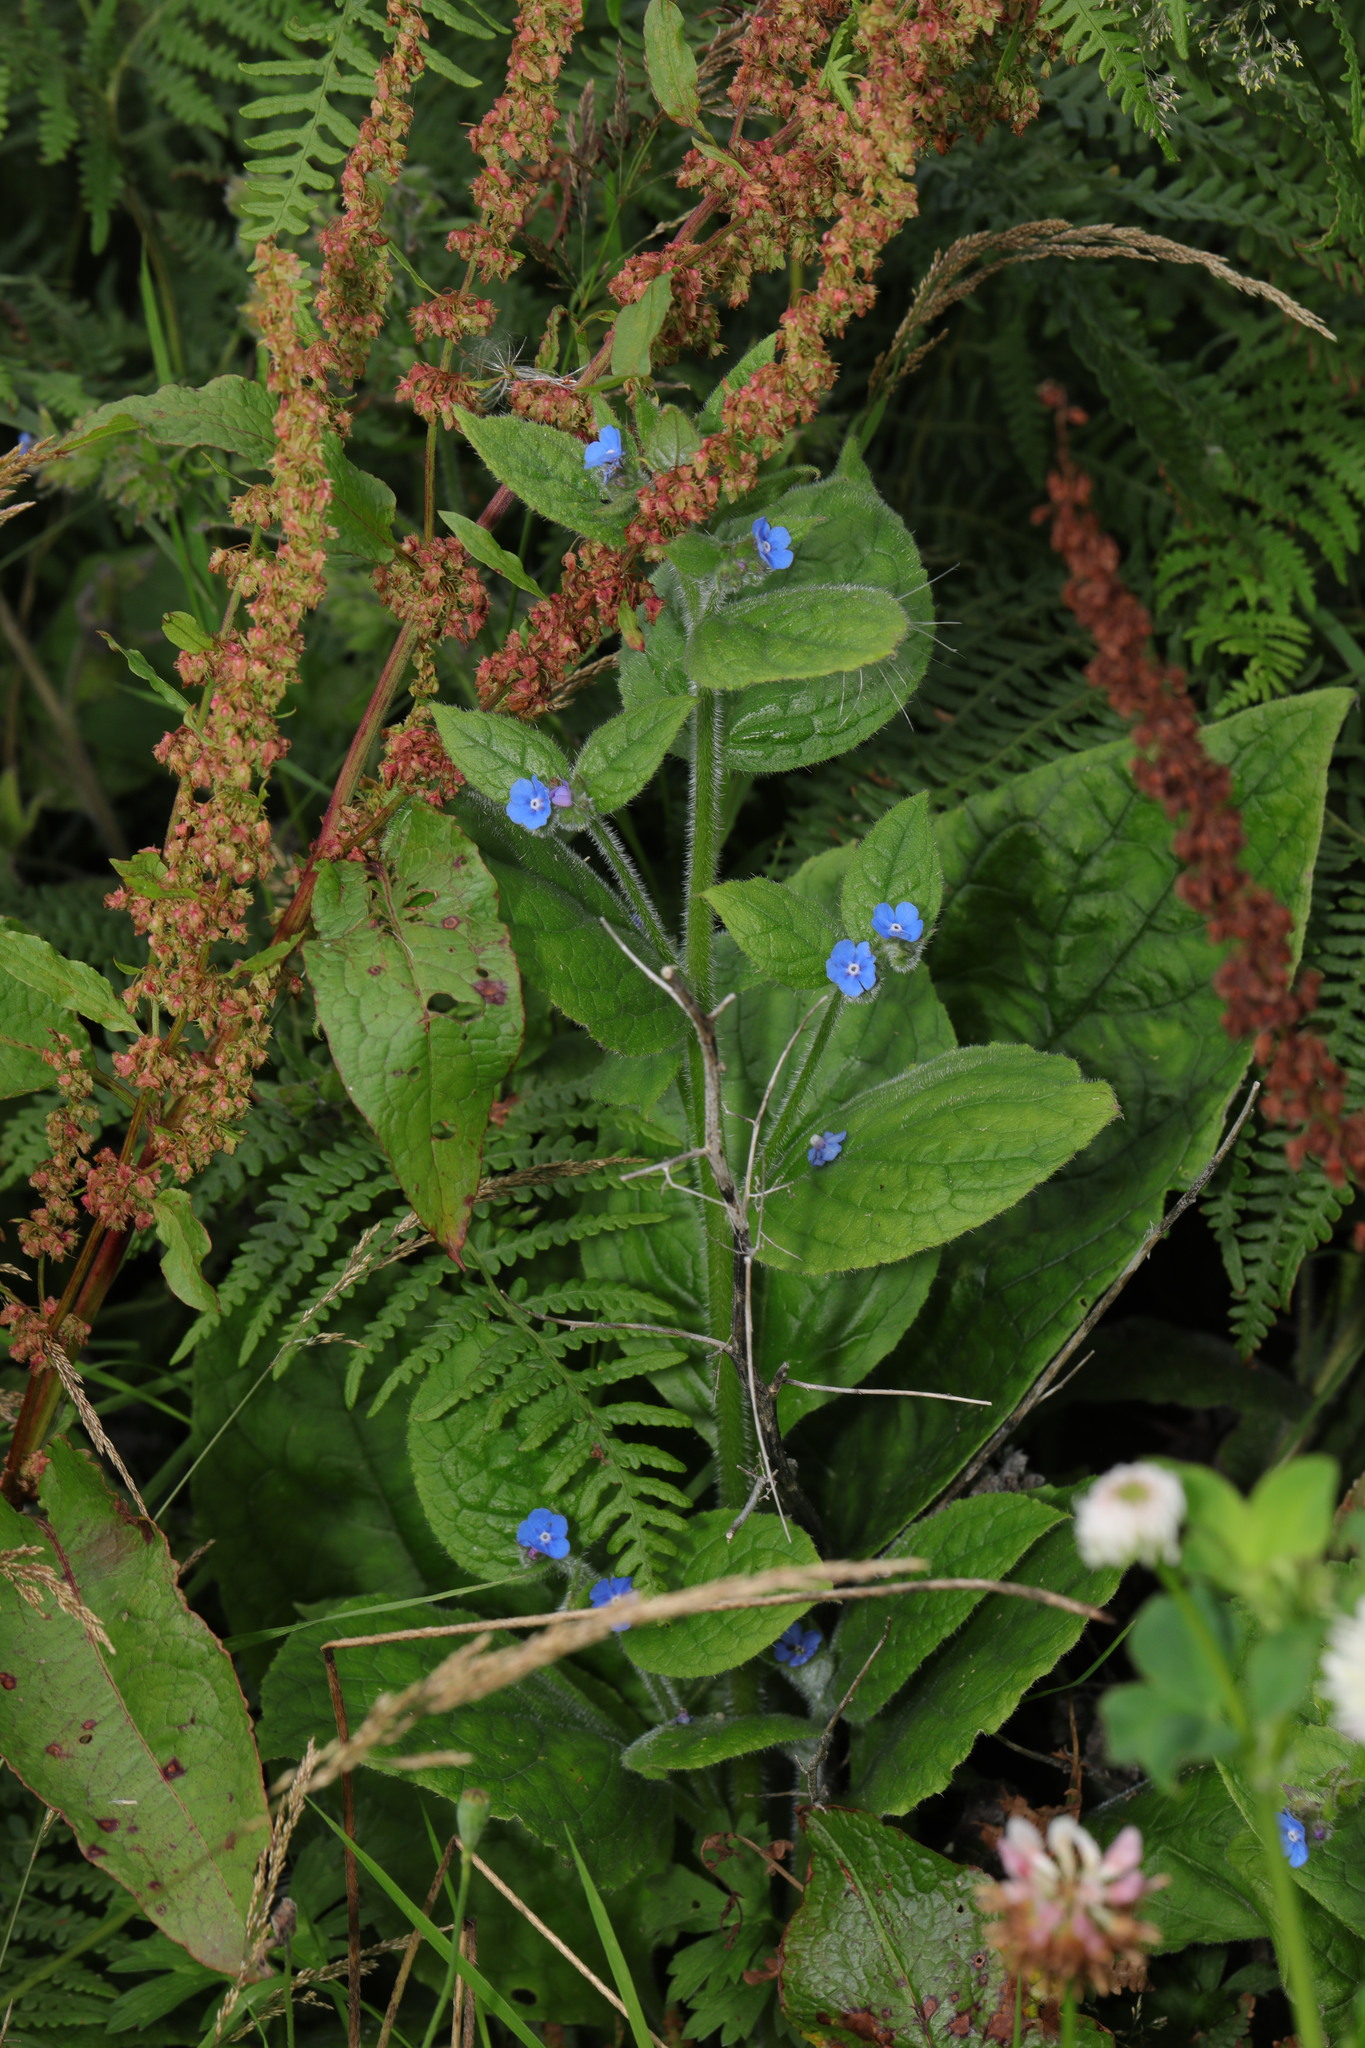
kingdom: Plantae
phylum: Tracheophyta
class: Magnoliopsida
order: Boraginales
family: Boraginaceae
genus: Pentaglottis
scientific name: Pentaglottis sempervirens
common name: Green alkanet
